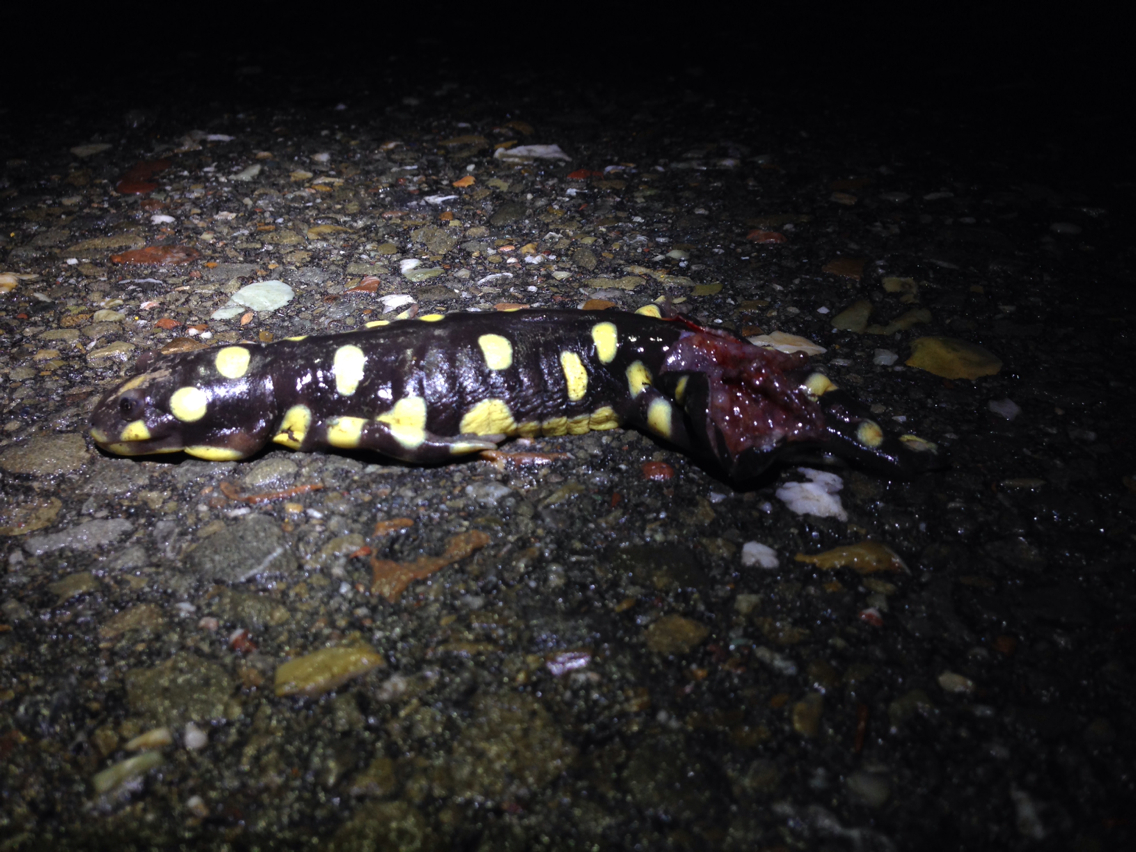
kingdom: Animalia
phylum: Chordata
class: Amphibia
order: Caudata
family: Ambystomatidae
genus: Ambystoma
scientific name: Ambystoma californiense
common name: California tiger salamander
